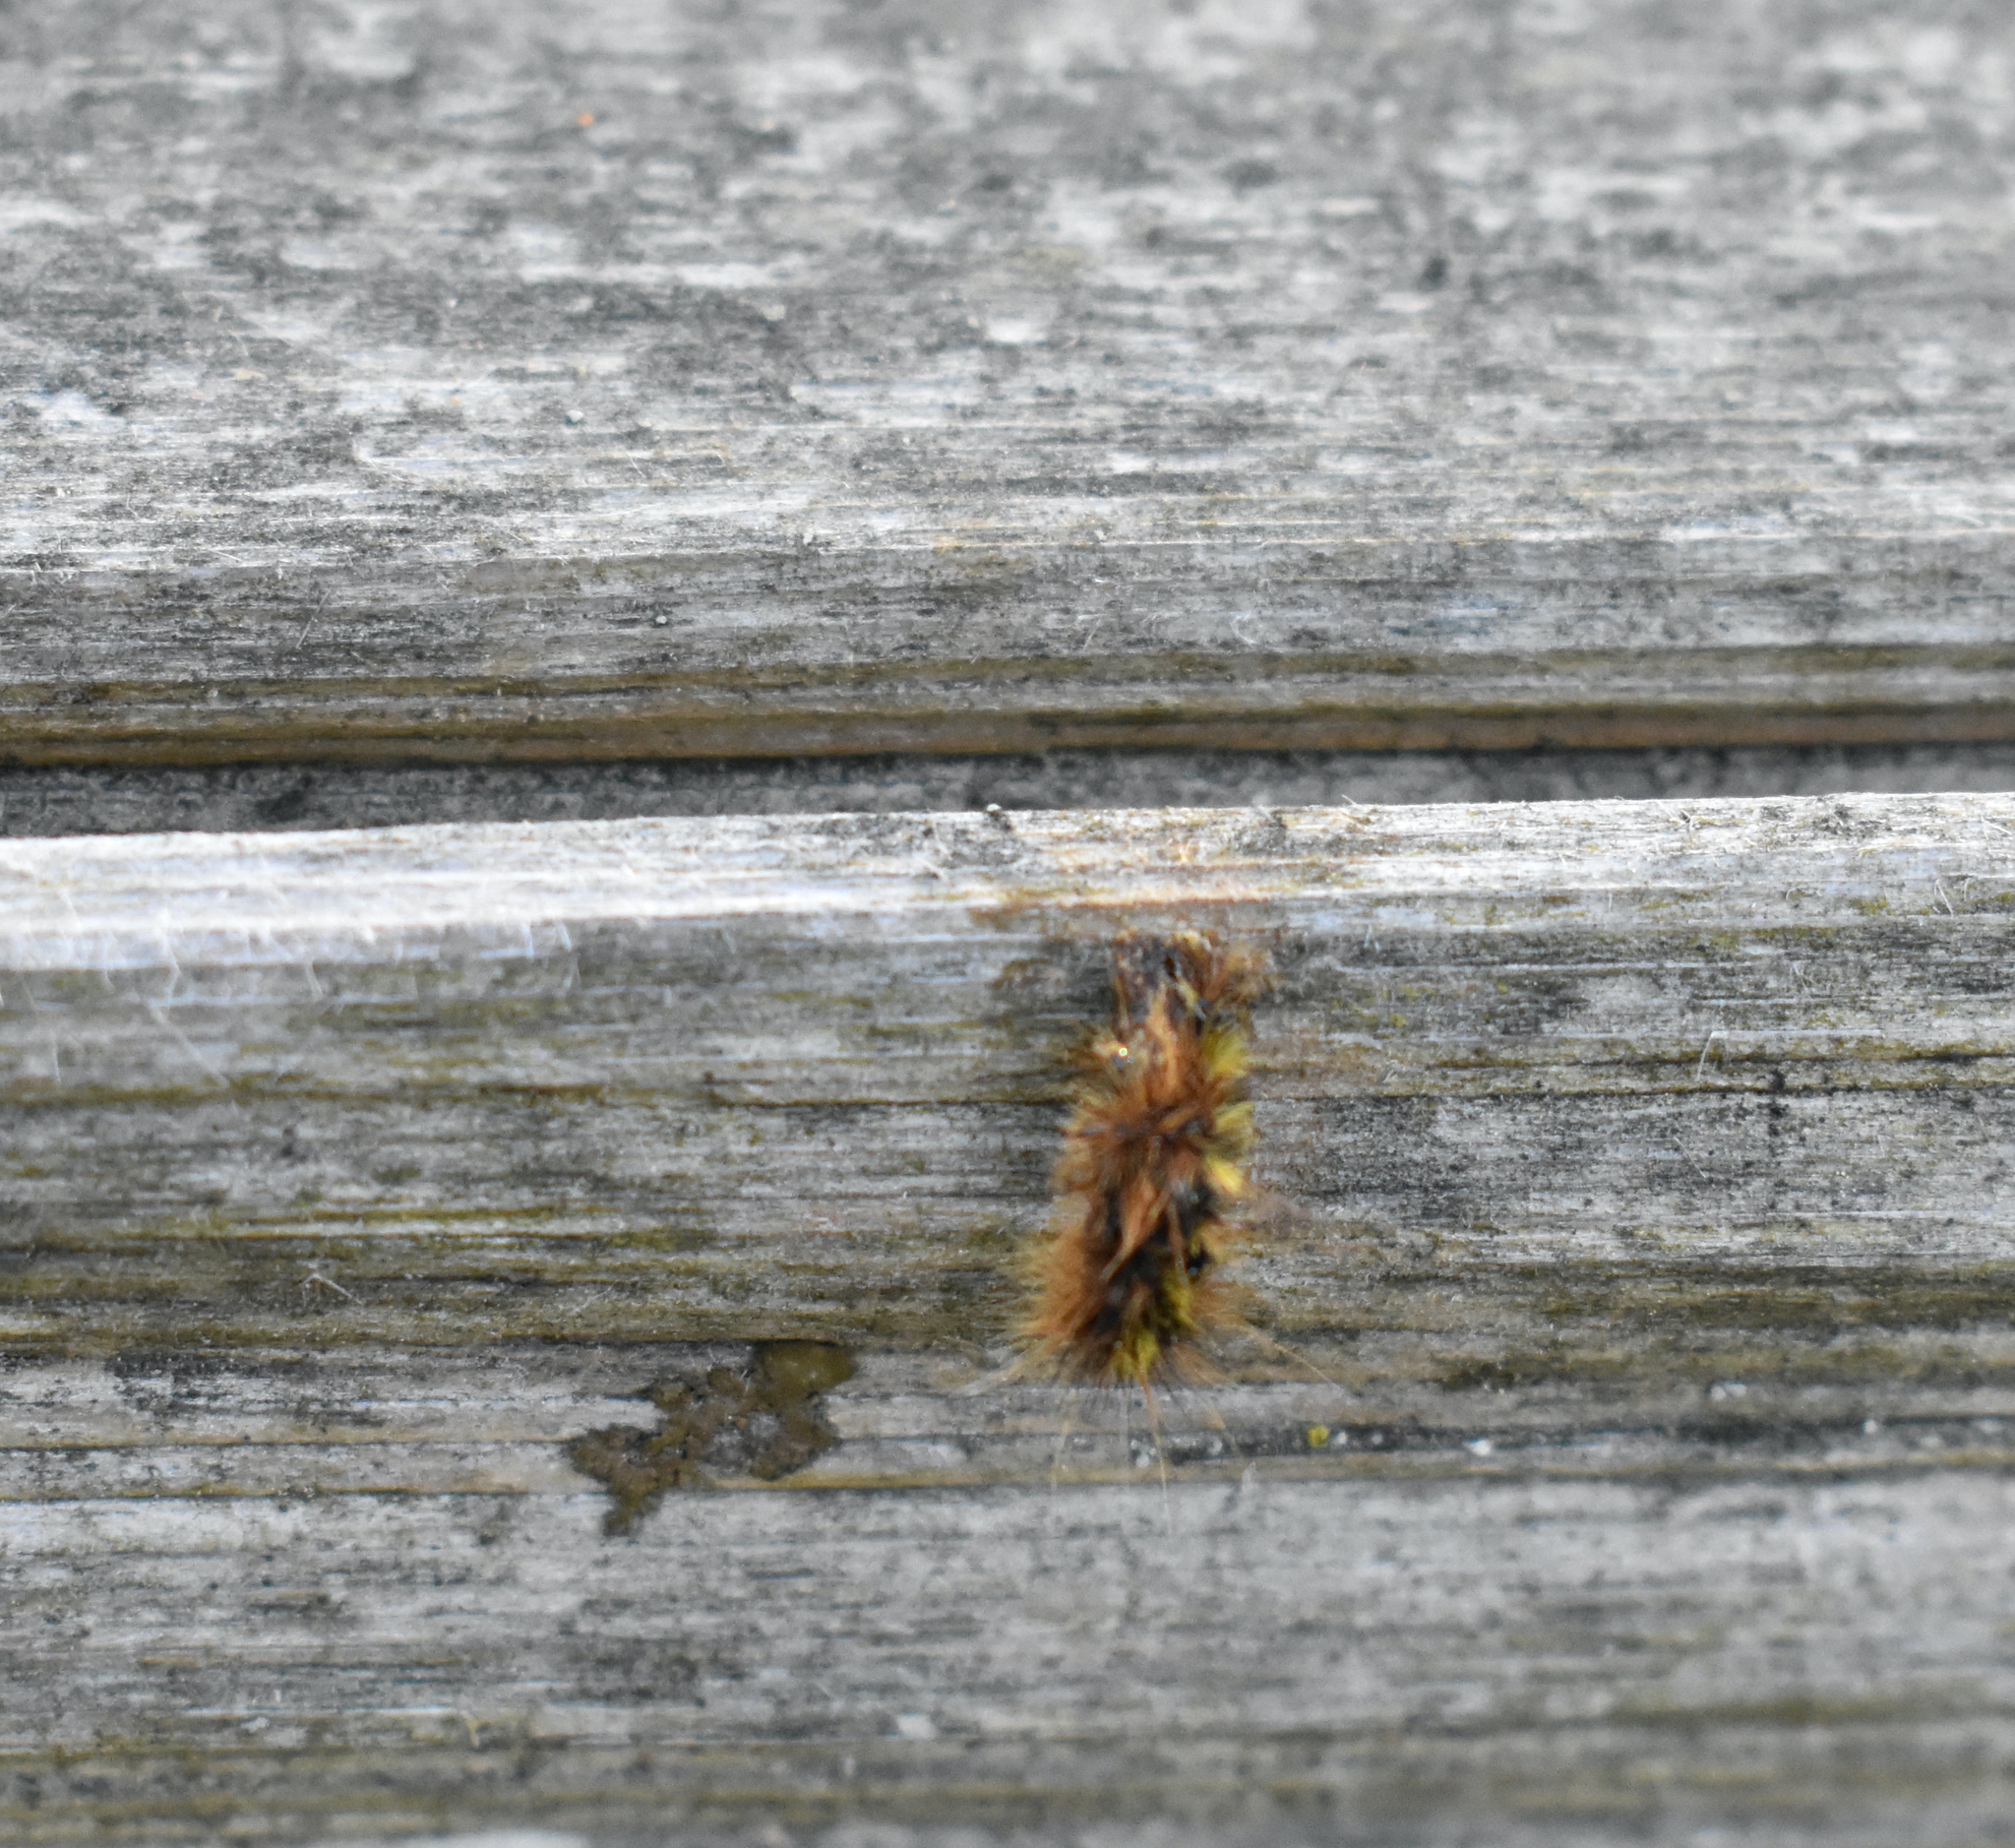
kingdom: Animalia
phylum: Arthropoda
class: Insecta
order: Lepidoptera
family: Erebidae
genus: Lophocampa
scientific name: Lophocampa argentata
